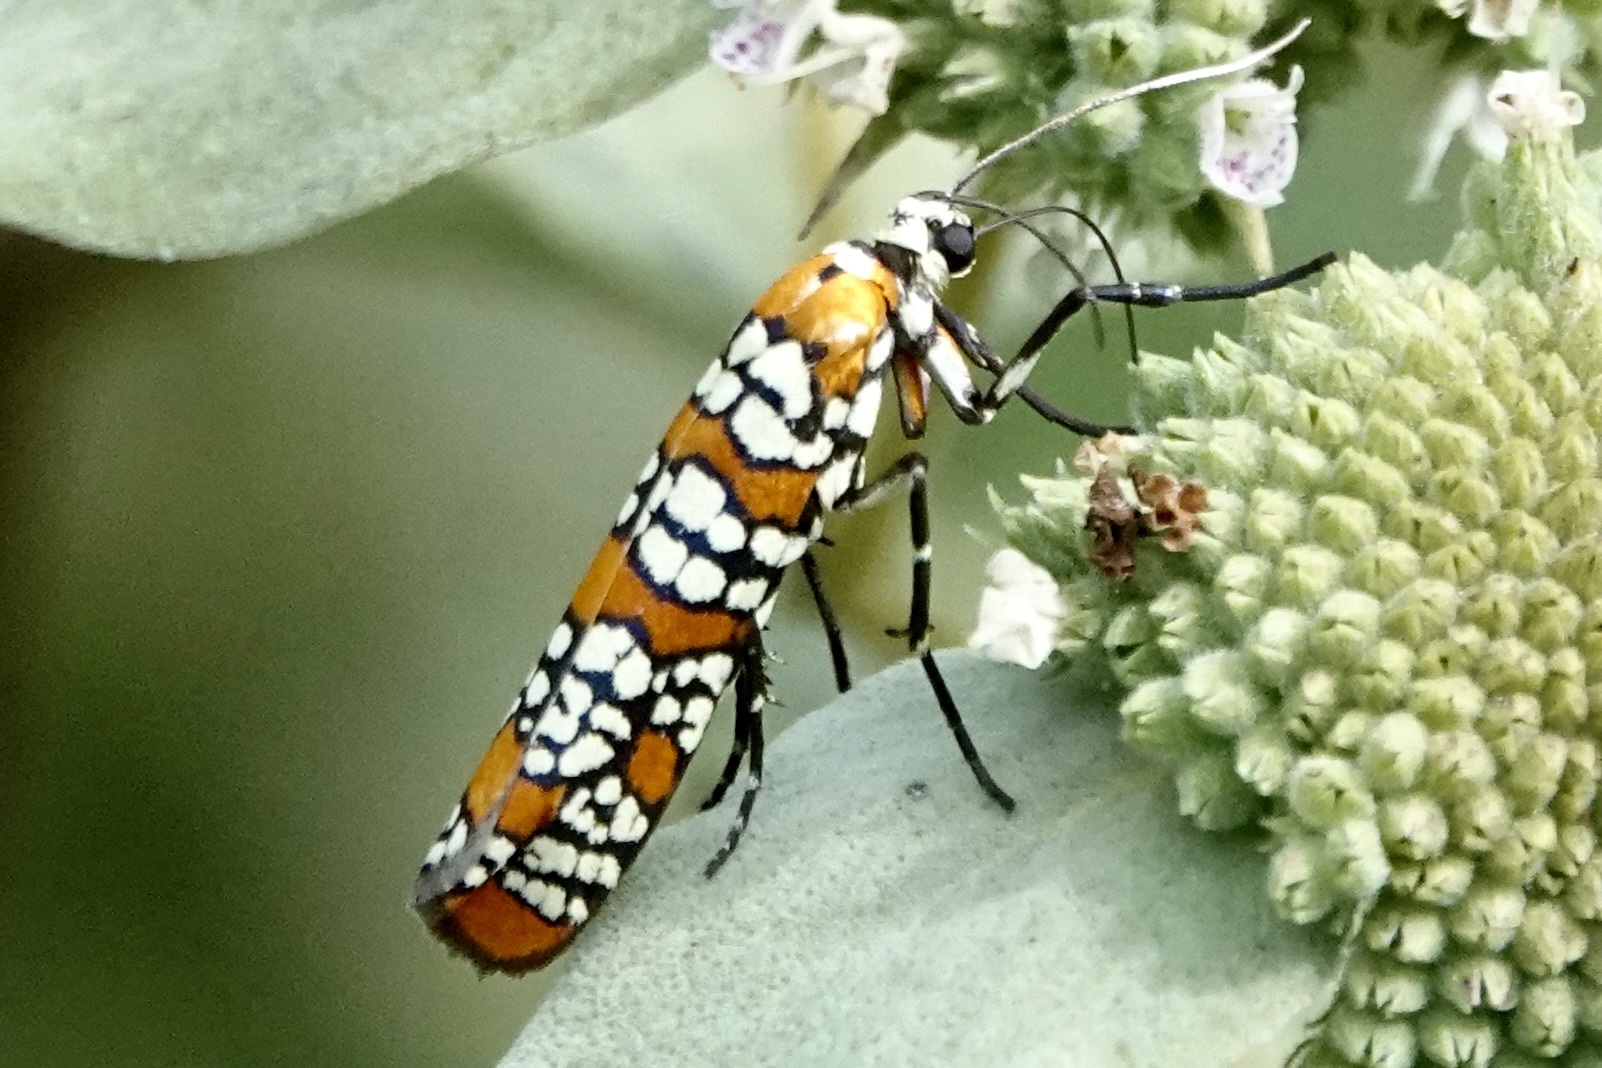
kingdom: Animalia
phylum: Arthropoda
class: Insecta
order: Lepidoptera
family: Attevidae
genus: Atteva
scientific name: Atteva punctella
